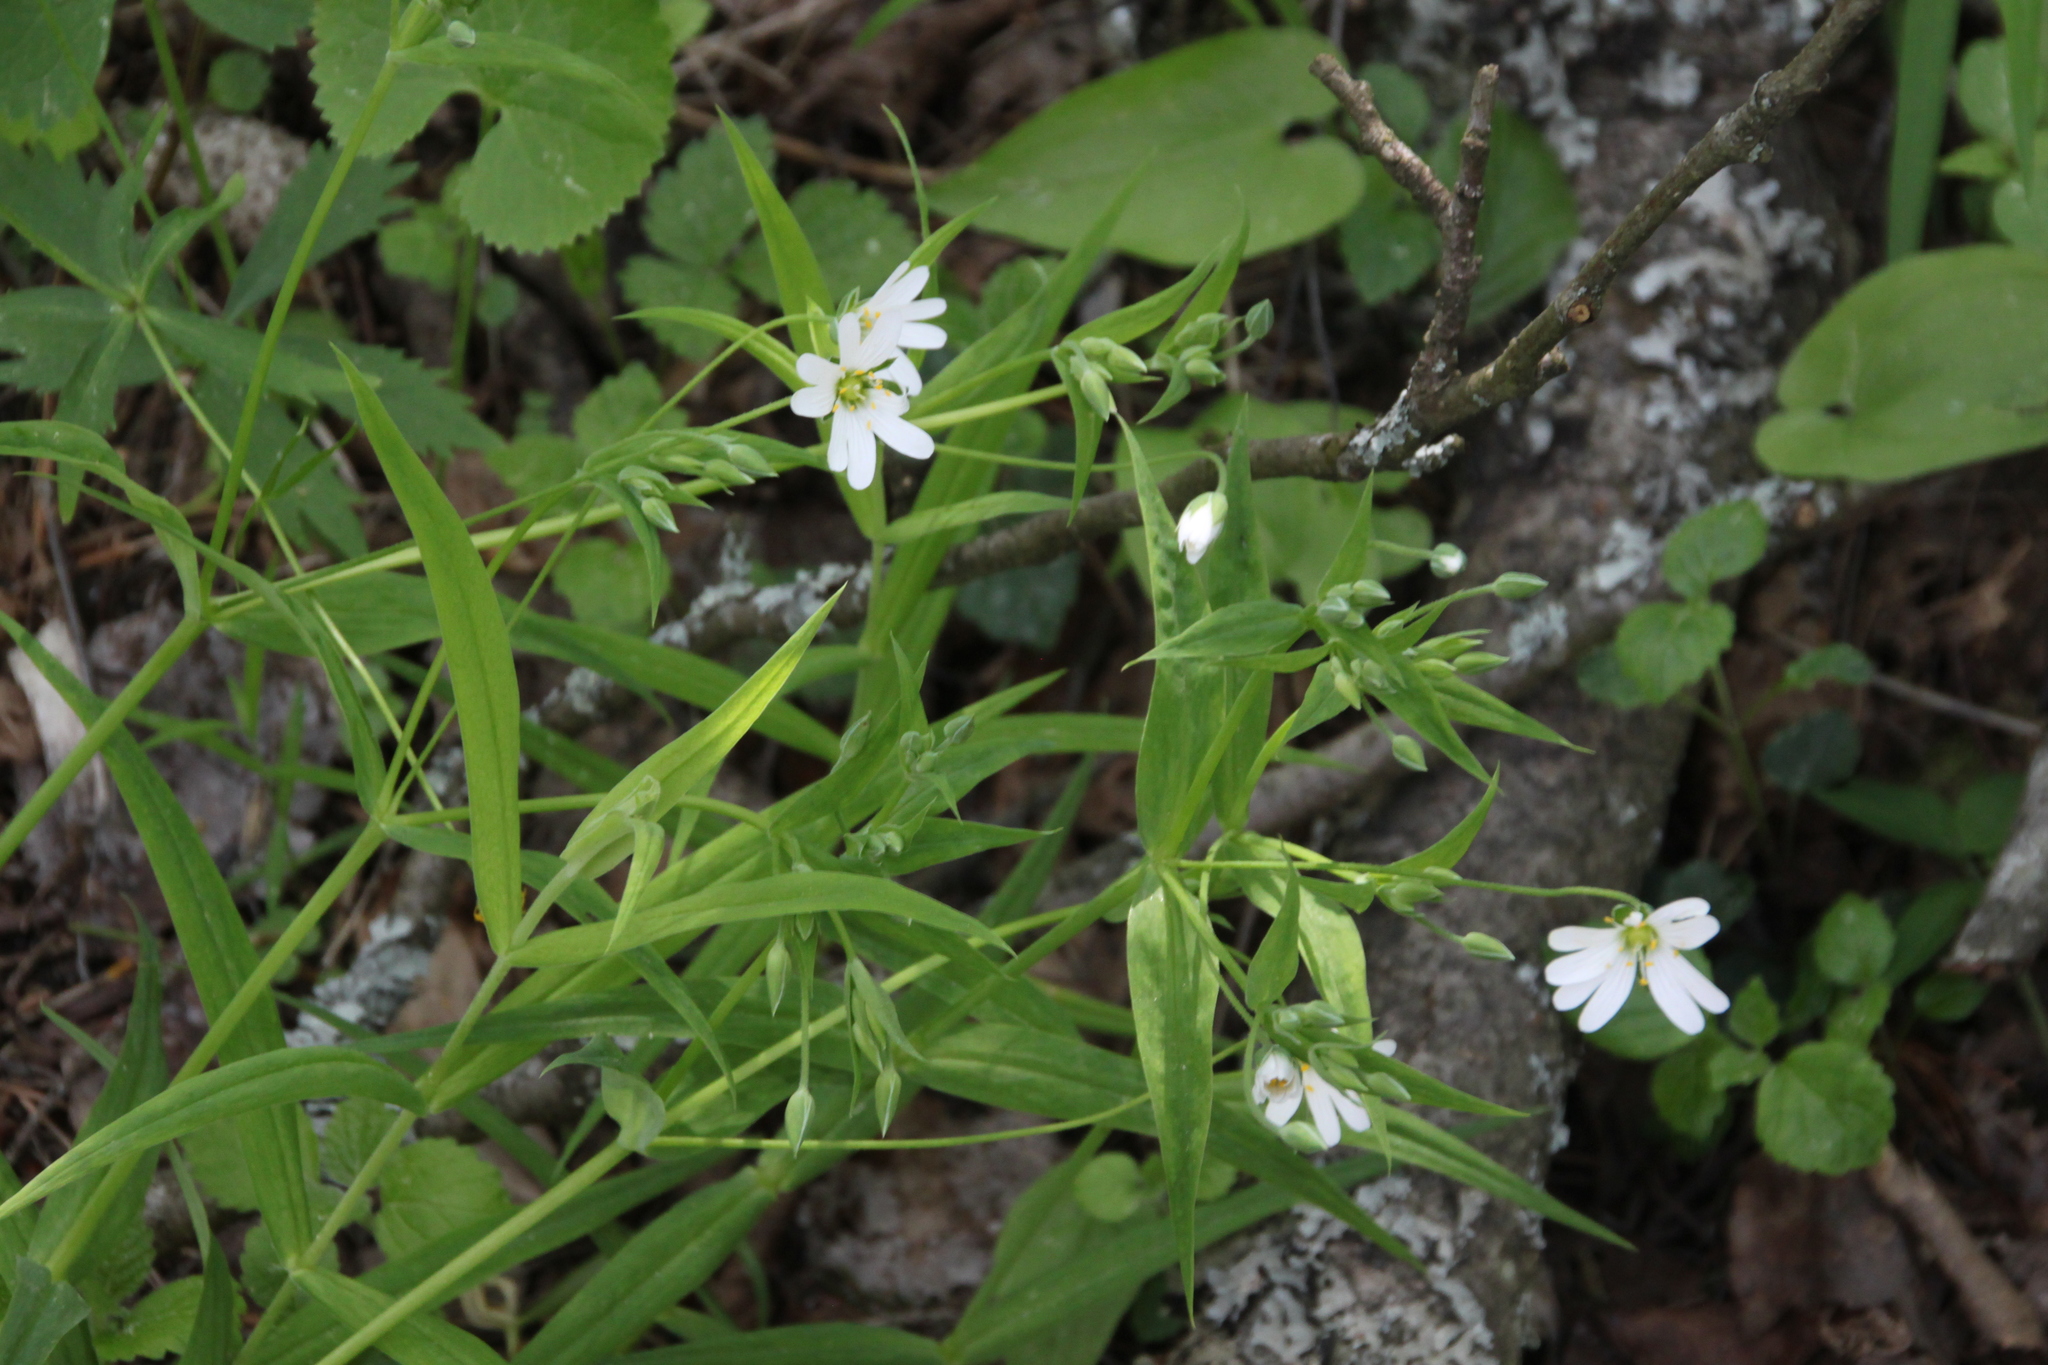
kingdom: Plantae
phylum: Tracheophyta
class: Magnoliopsida
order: Caryophyllales
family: Caryophyllaceae
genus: Rabelera
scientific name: Rabelera holostea
